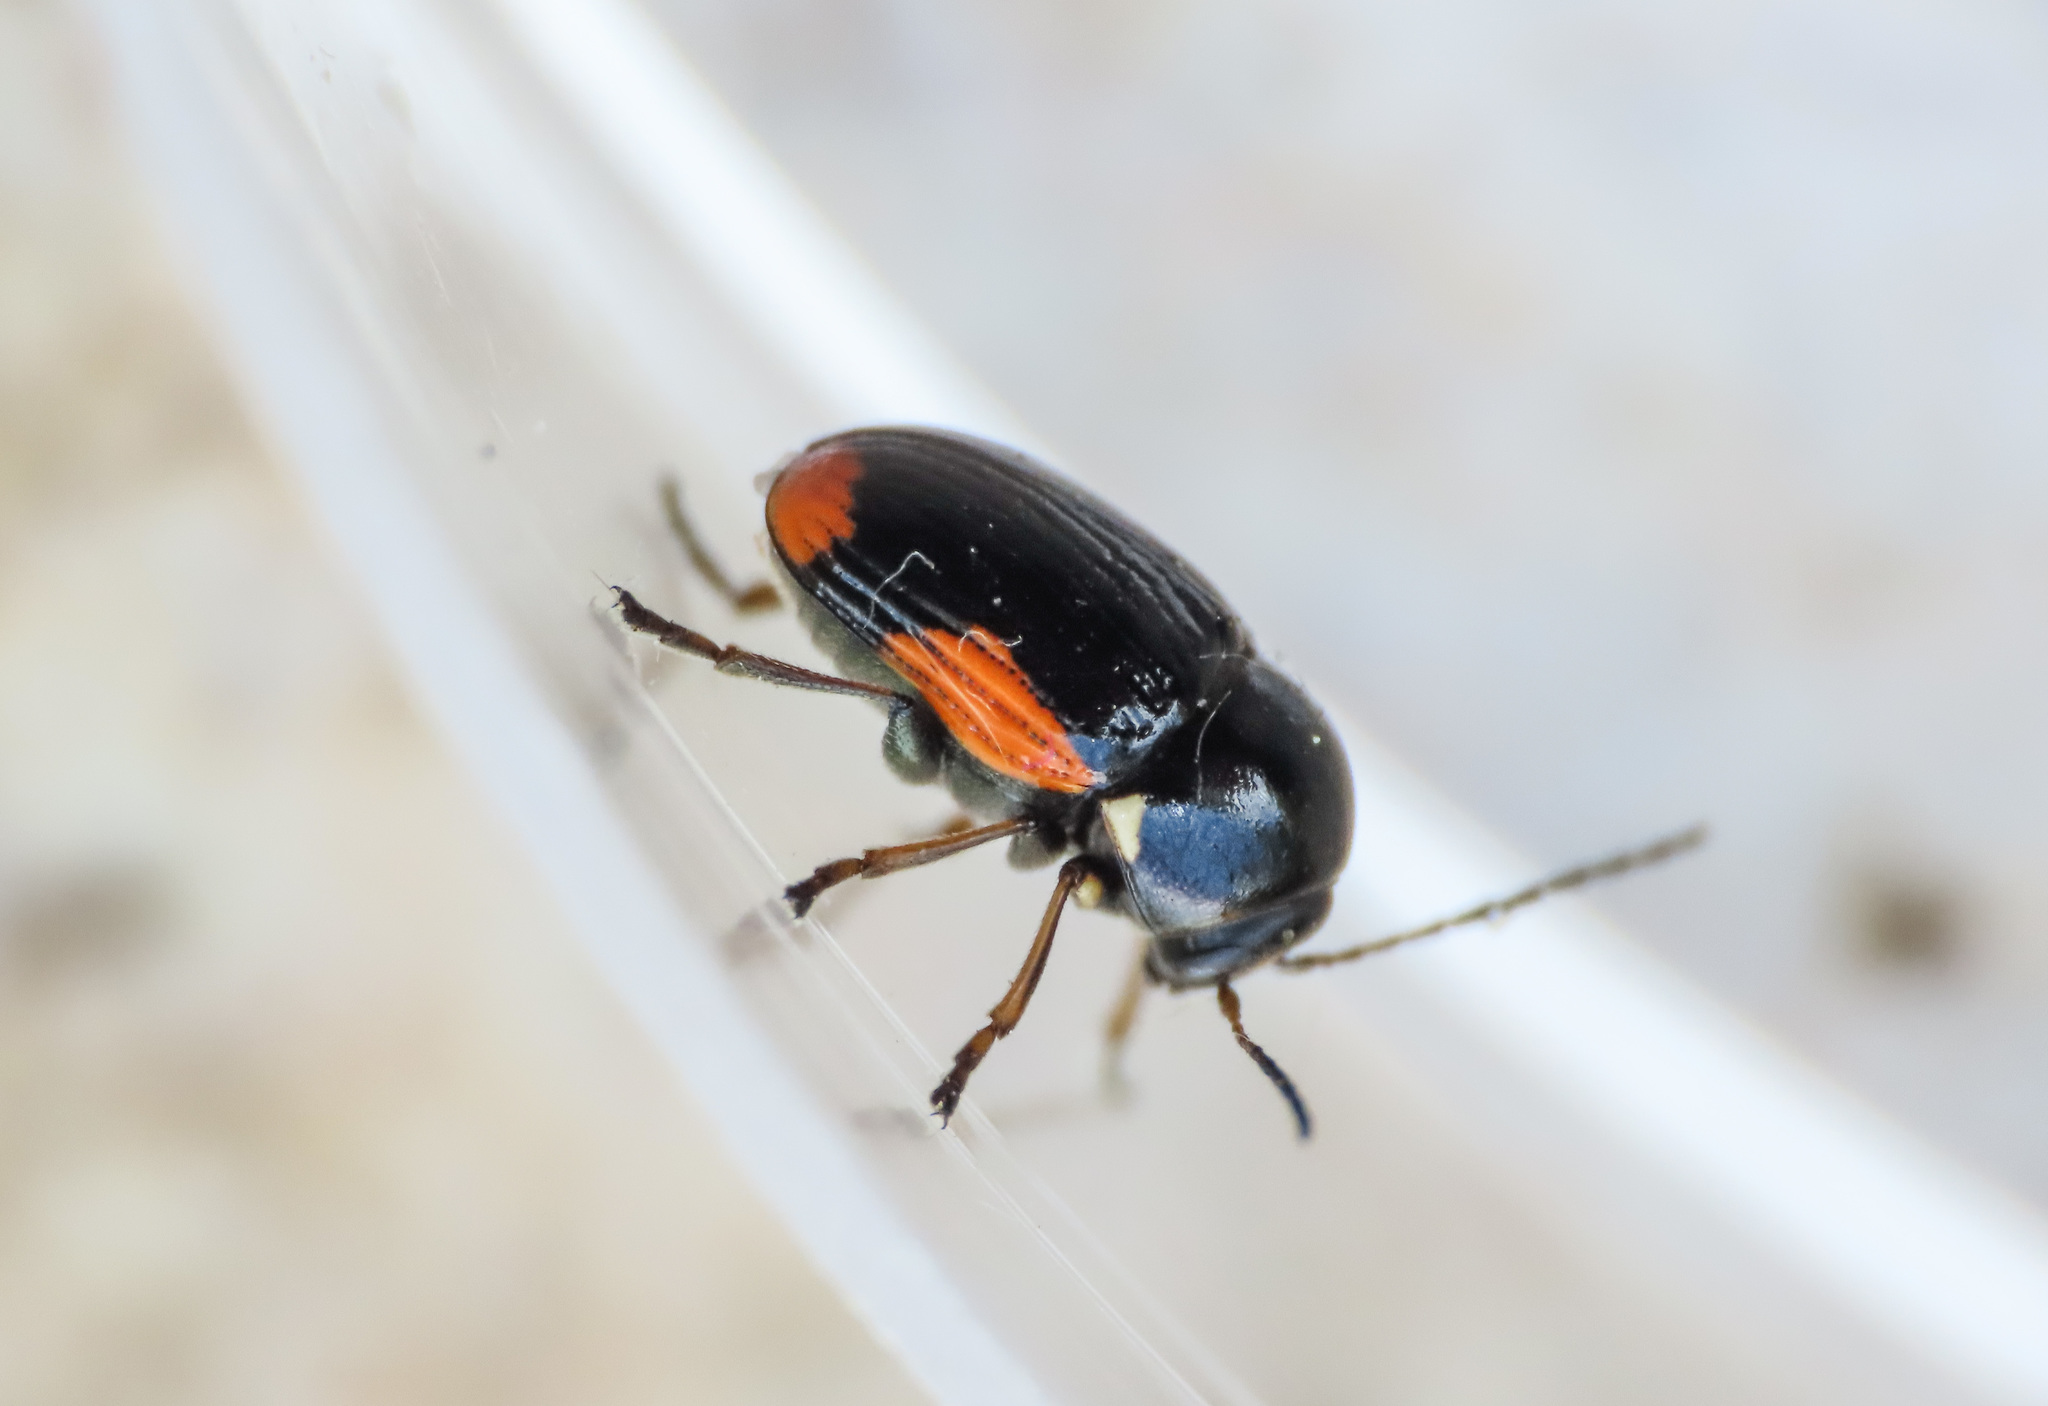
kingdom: Animalia
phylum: Arthropoda
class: Insecta
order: Coleoptera
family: Chrysomelidae
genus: Cryptocephalus
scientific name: Cryptocephalus moraei
